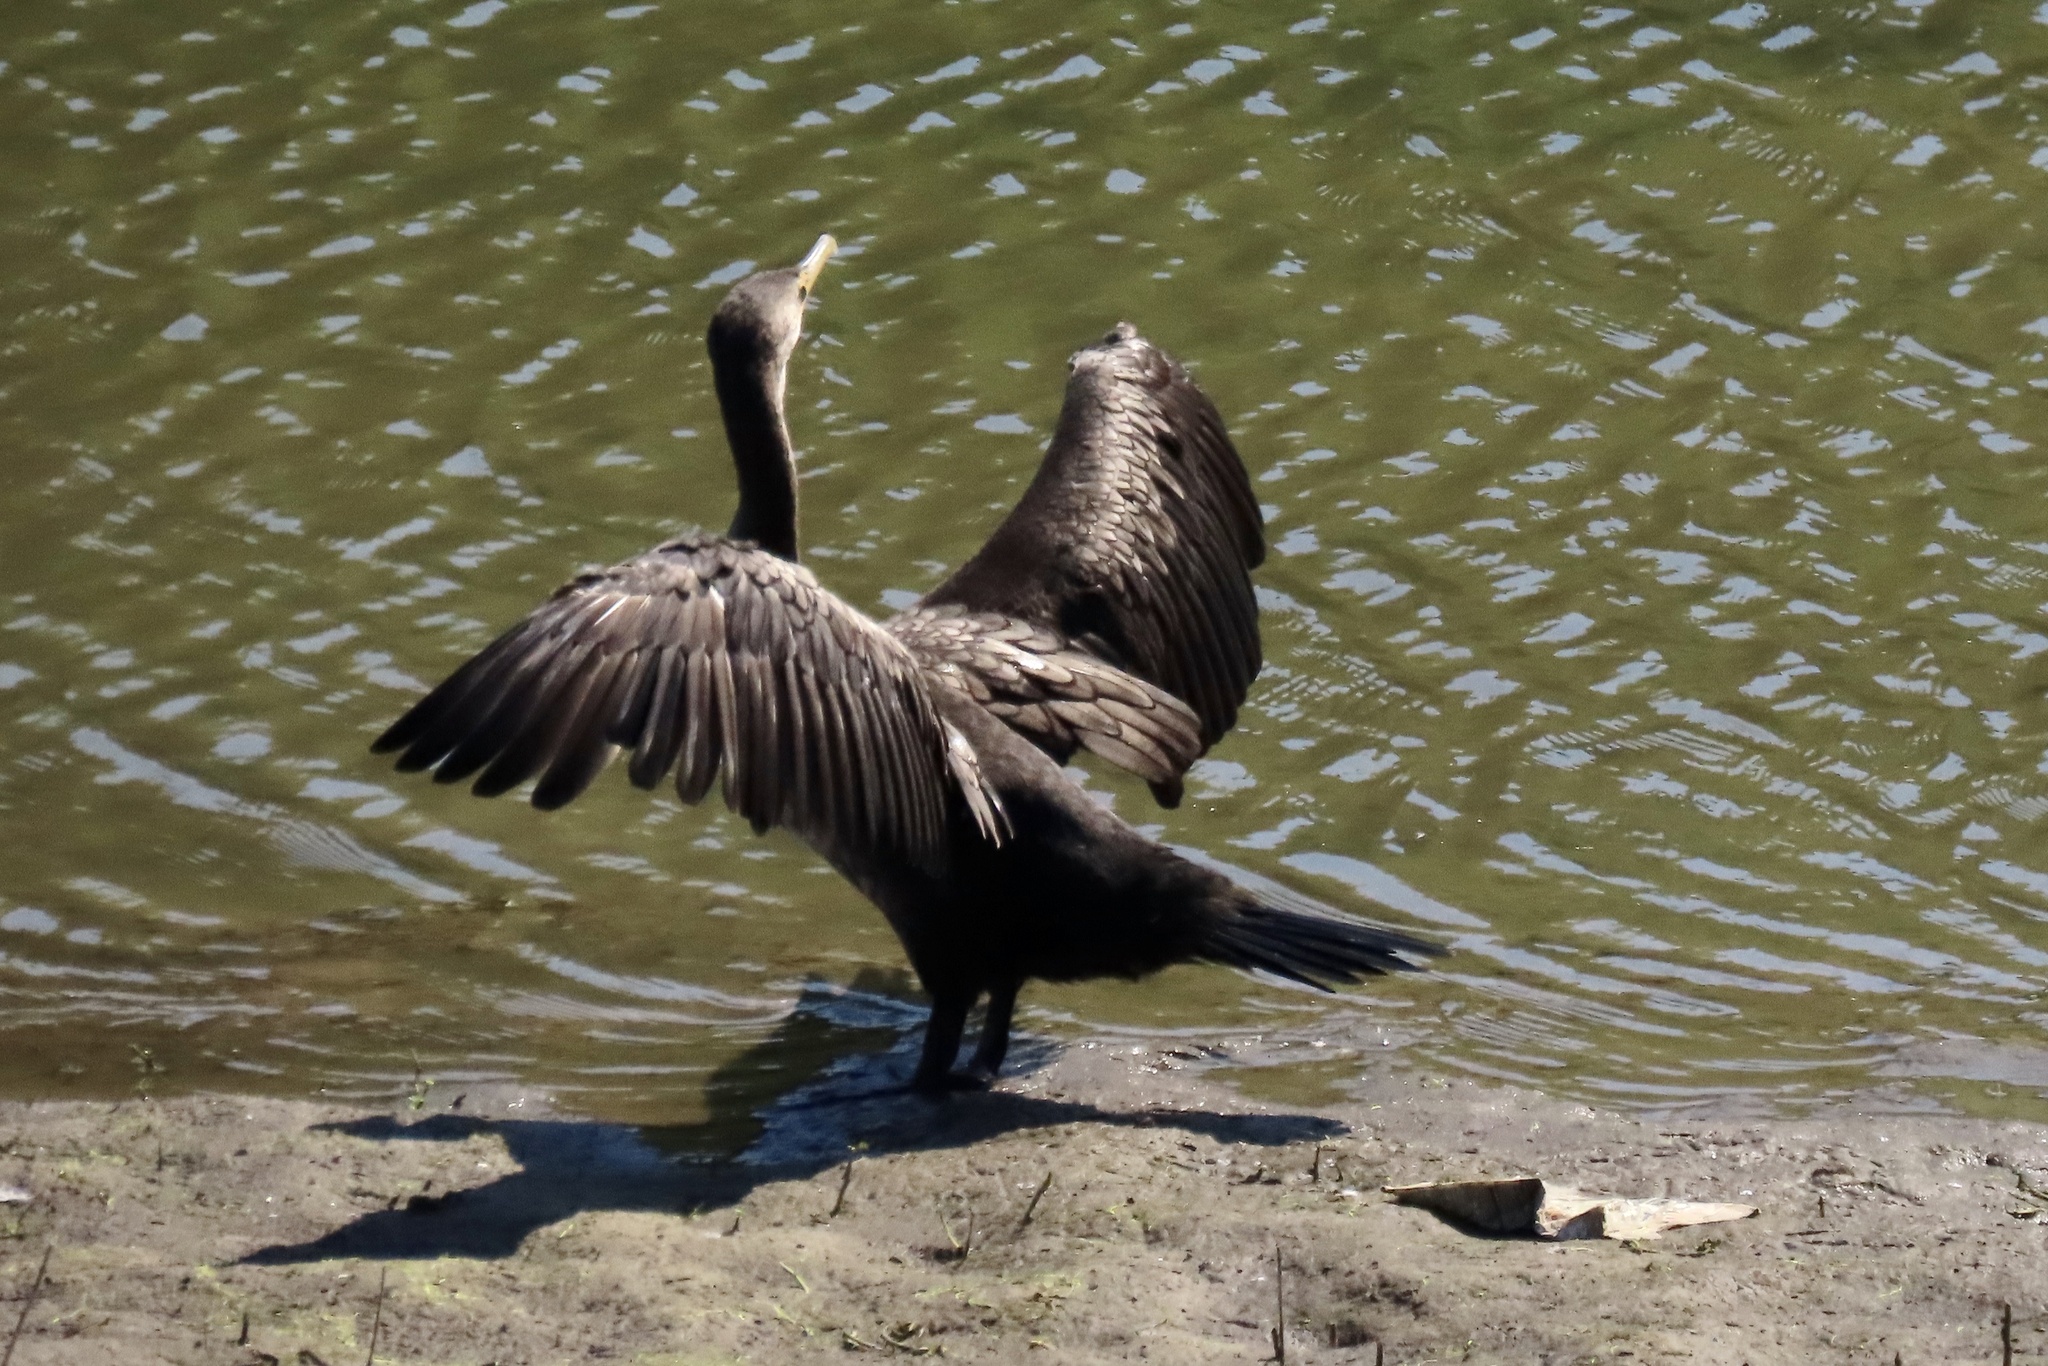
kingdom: Animalia
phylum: Chordata
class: Aves
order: Suliformes
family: Phalacrocoracidae
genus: Phalacrocorax
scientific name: Phalacrocorax auritus
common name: Double-crested cormorant
